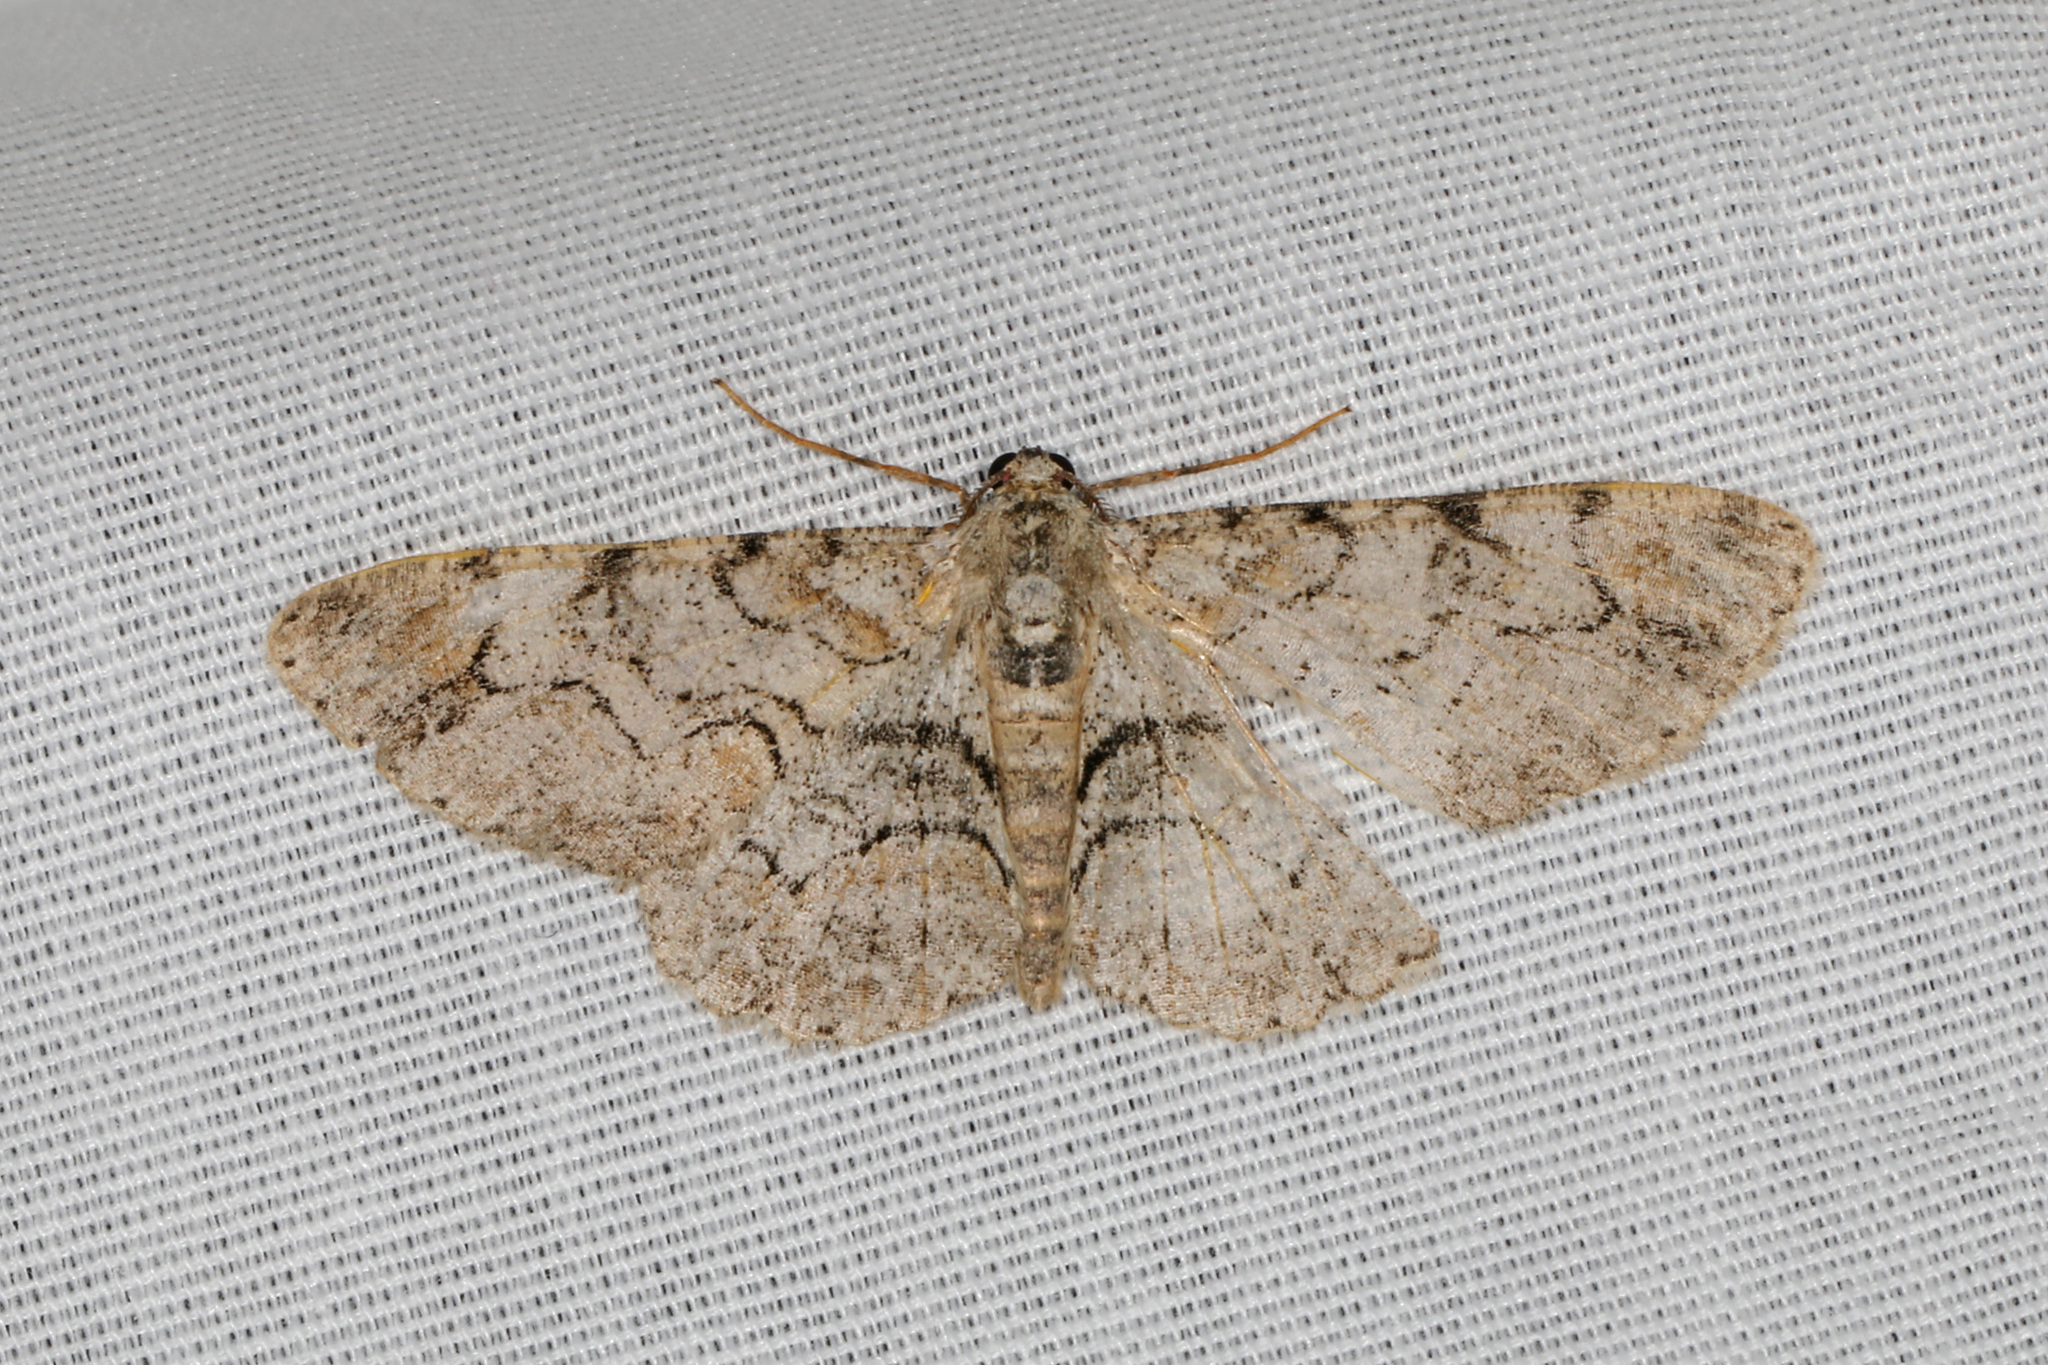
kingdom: Animalia
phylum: Arthropoda
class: Insecta
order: Lepidoptera
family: Geometridae
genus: Iridopsis
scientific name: Iridopsis larvaria
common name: Bent-line gray
